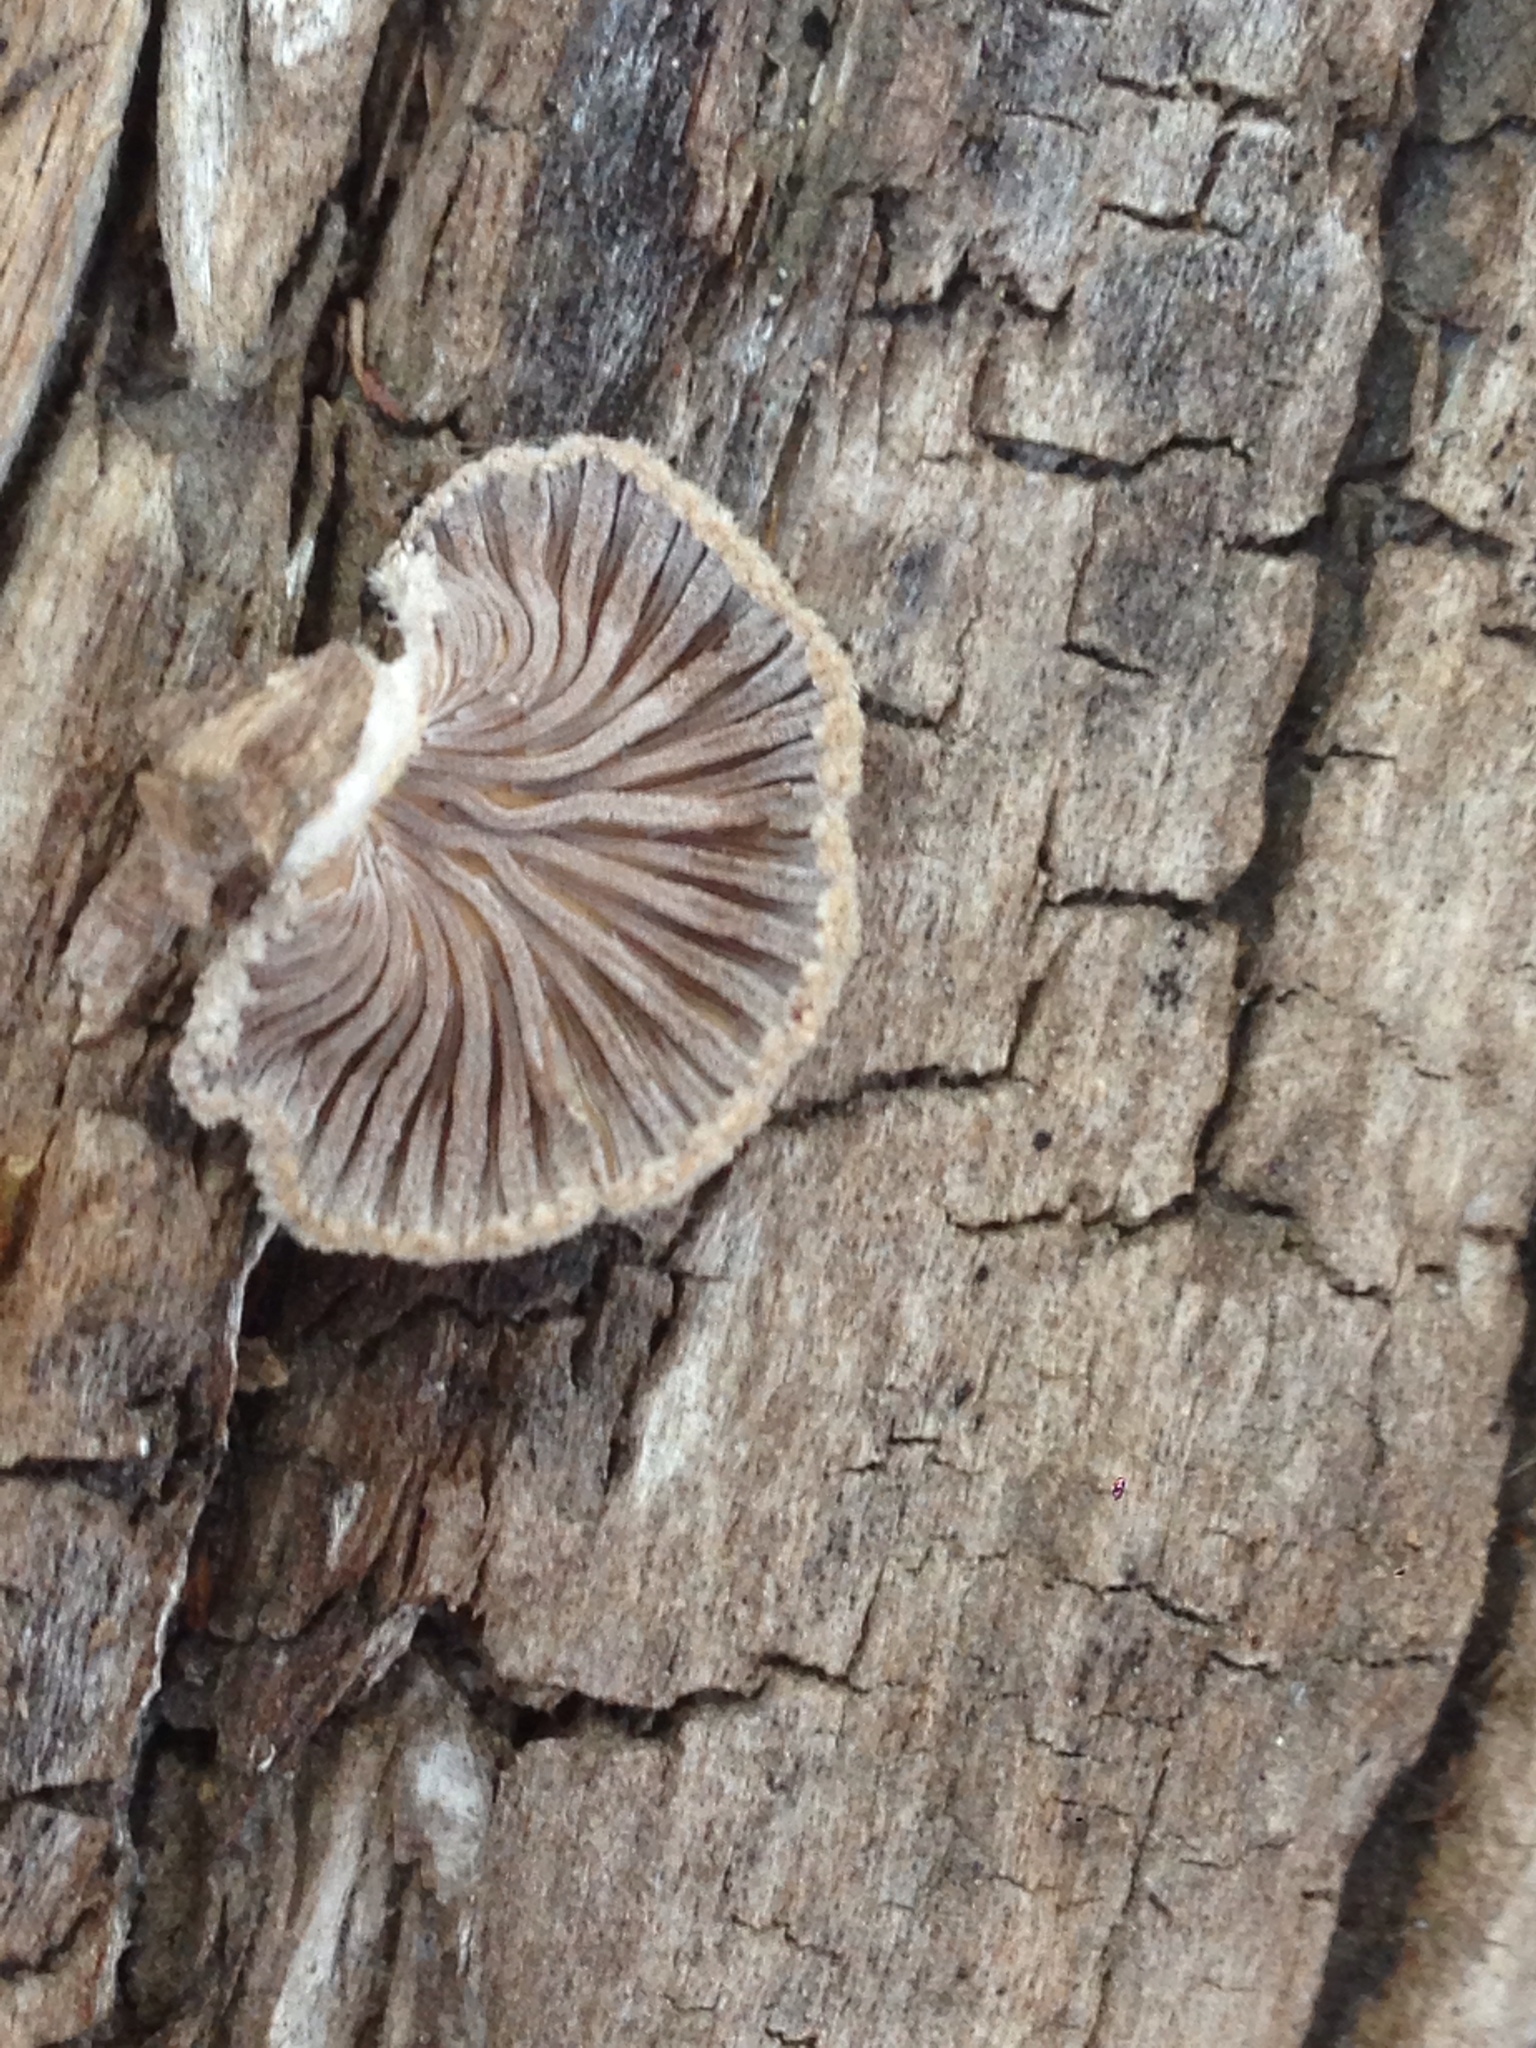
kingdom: Fungi
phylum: Basidiomycota
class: Agaricomycetes
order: Agaricales
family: Schizophyllaceae
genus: Schizophyllum
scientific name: Schizophyllum commune
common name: Common porecrust
